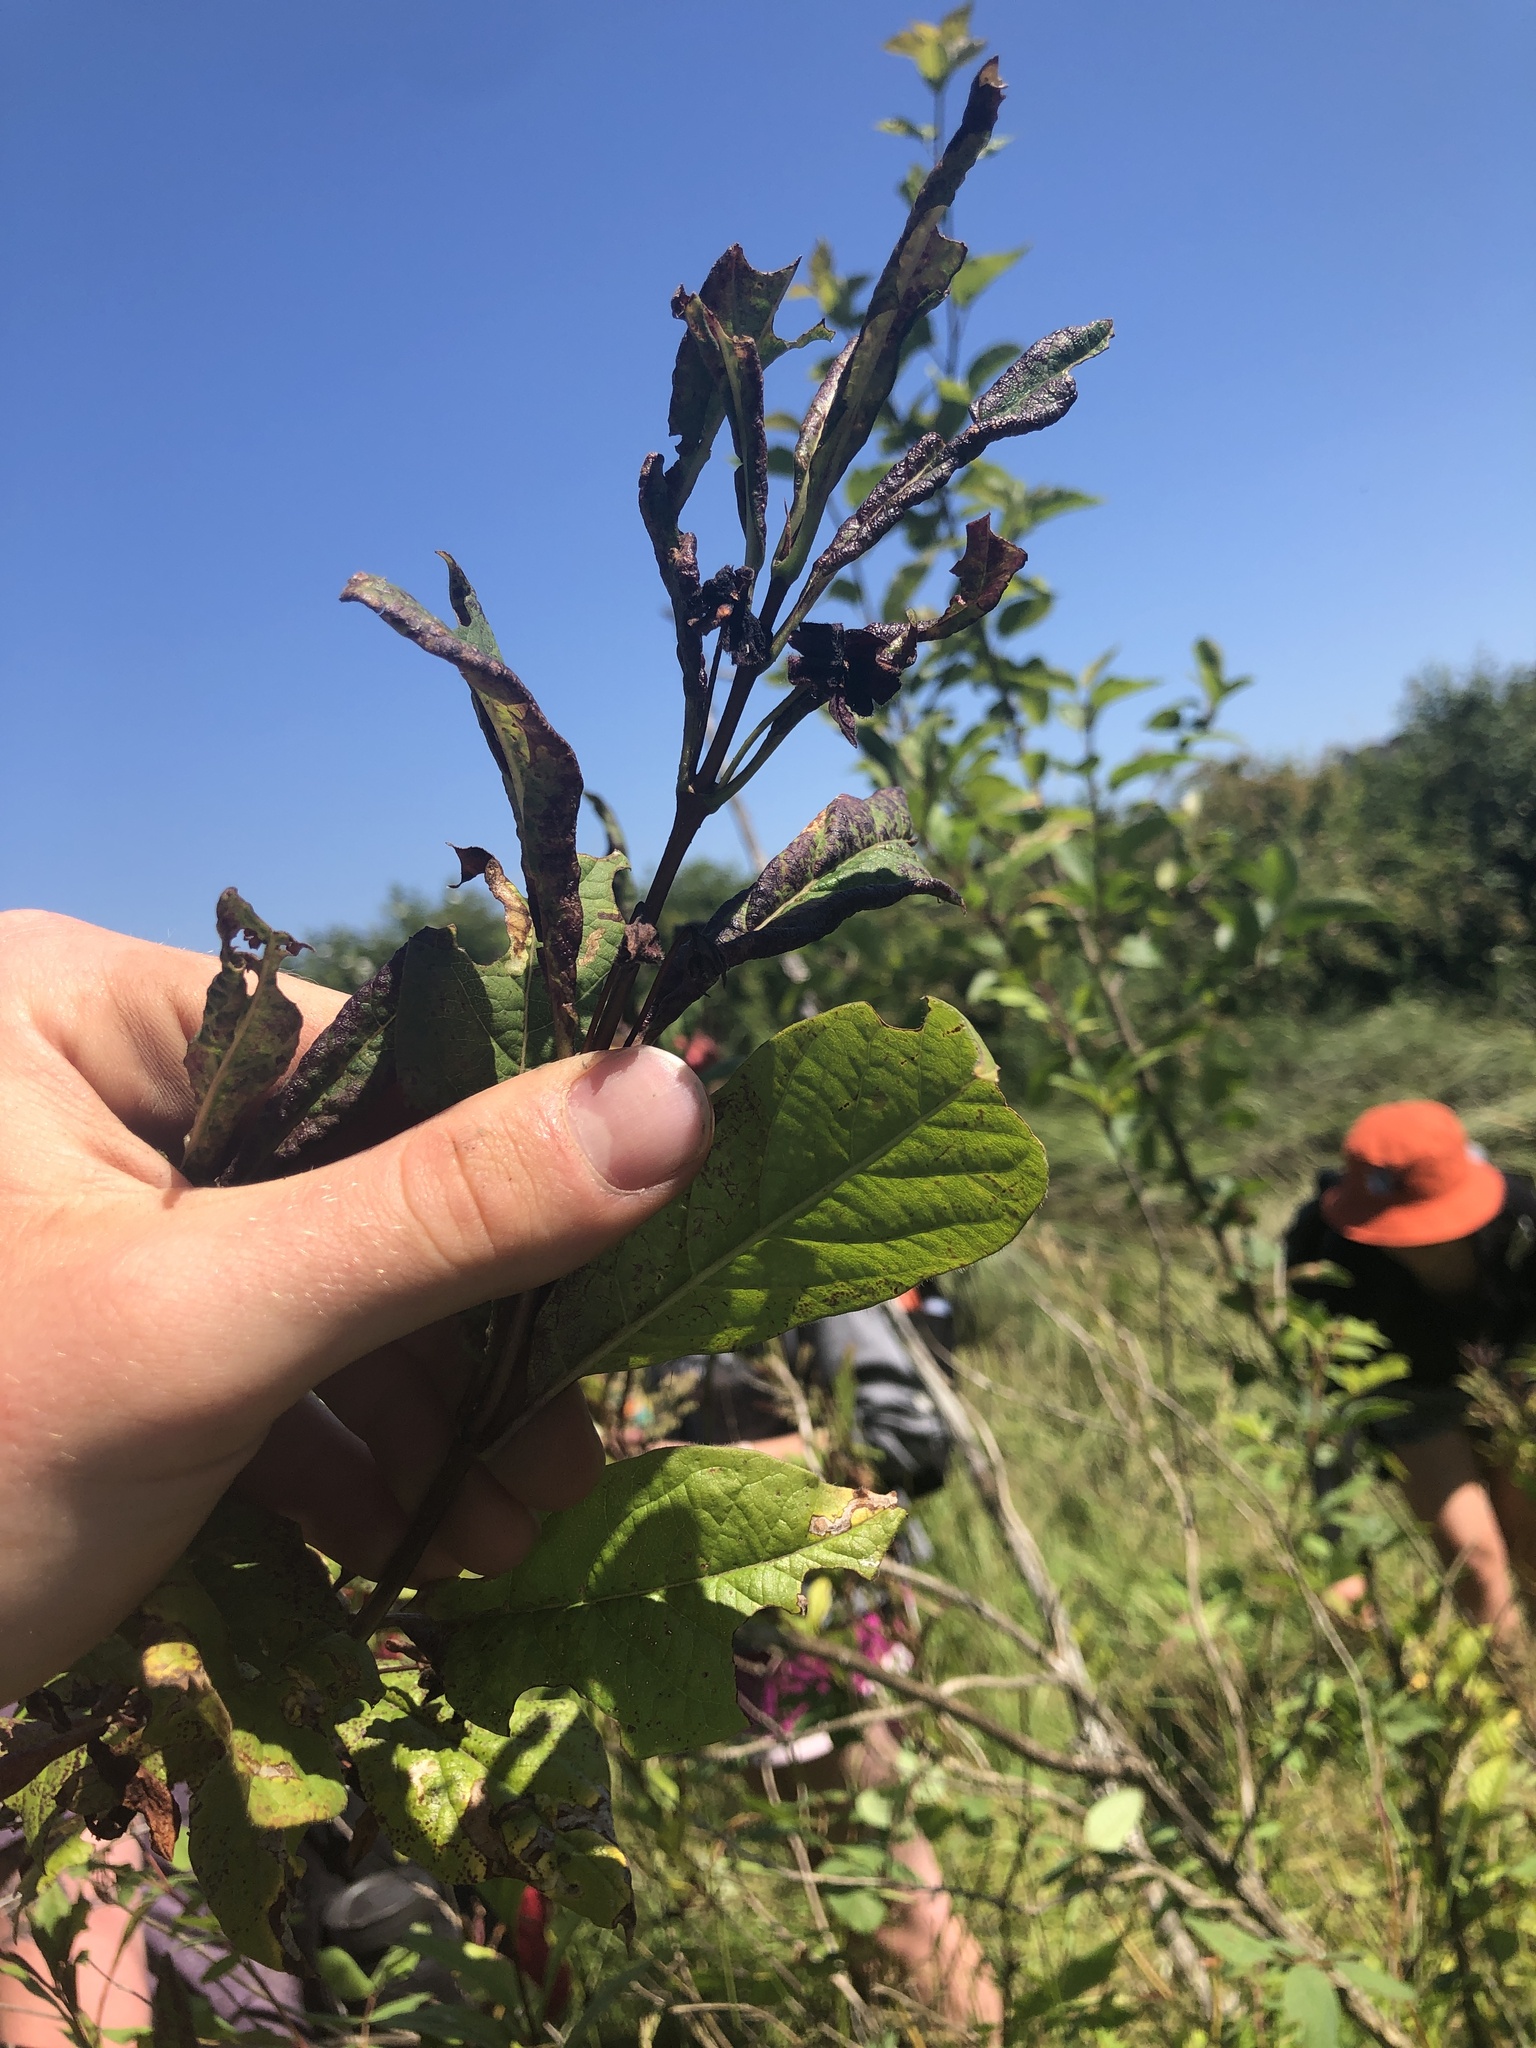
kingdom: Plantae
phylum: Tracheophyta
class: Magnoliopsida
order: Dipsacales
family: Caprifoliaceae
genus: Lonicera
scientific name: Lonicera involucrata
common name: Californian honeysuckle
